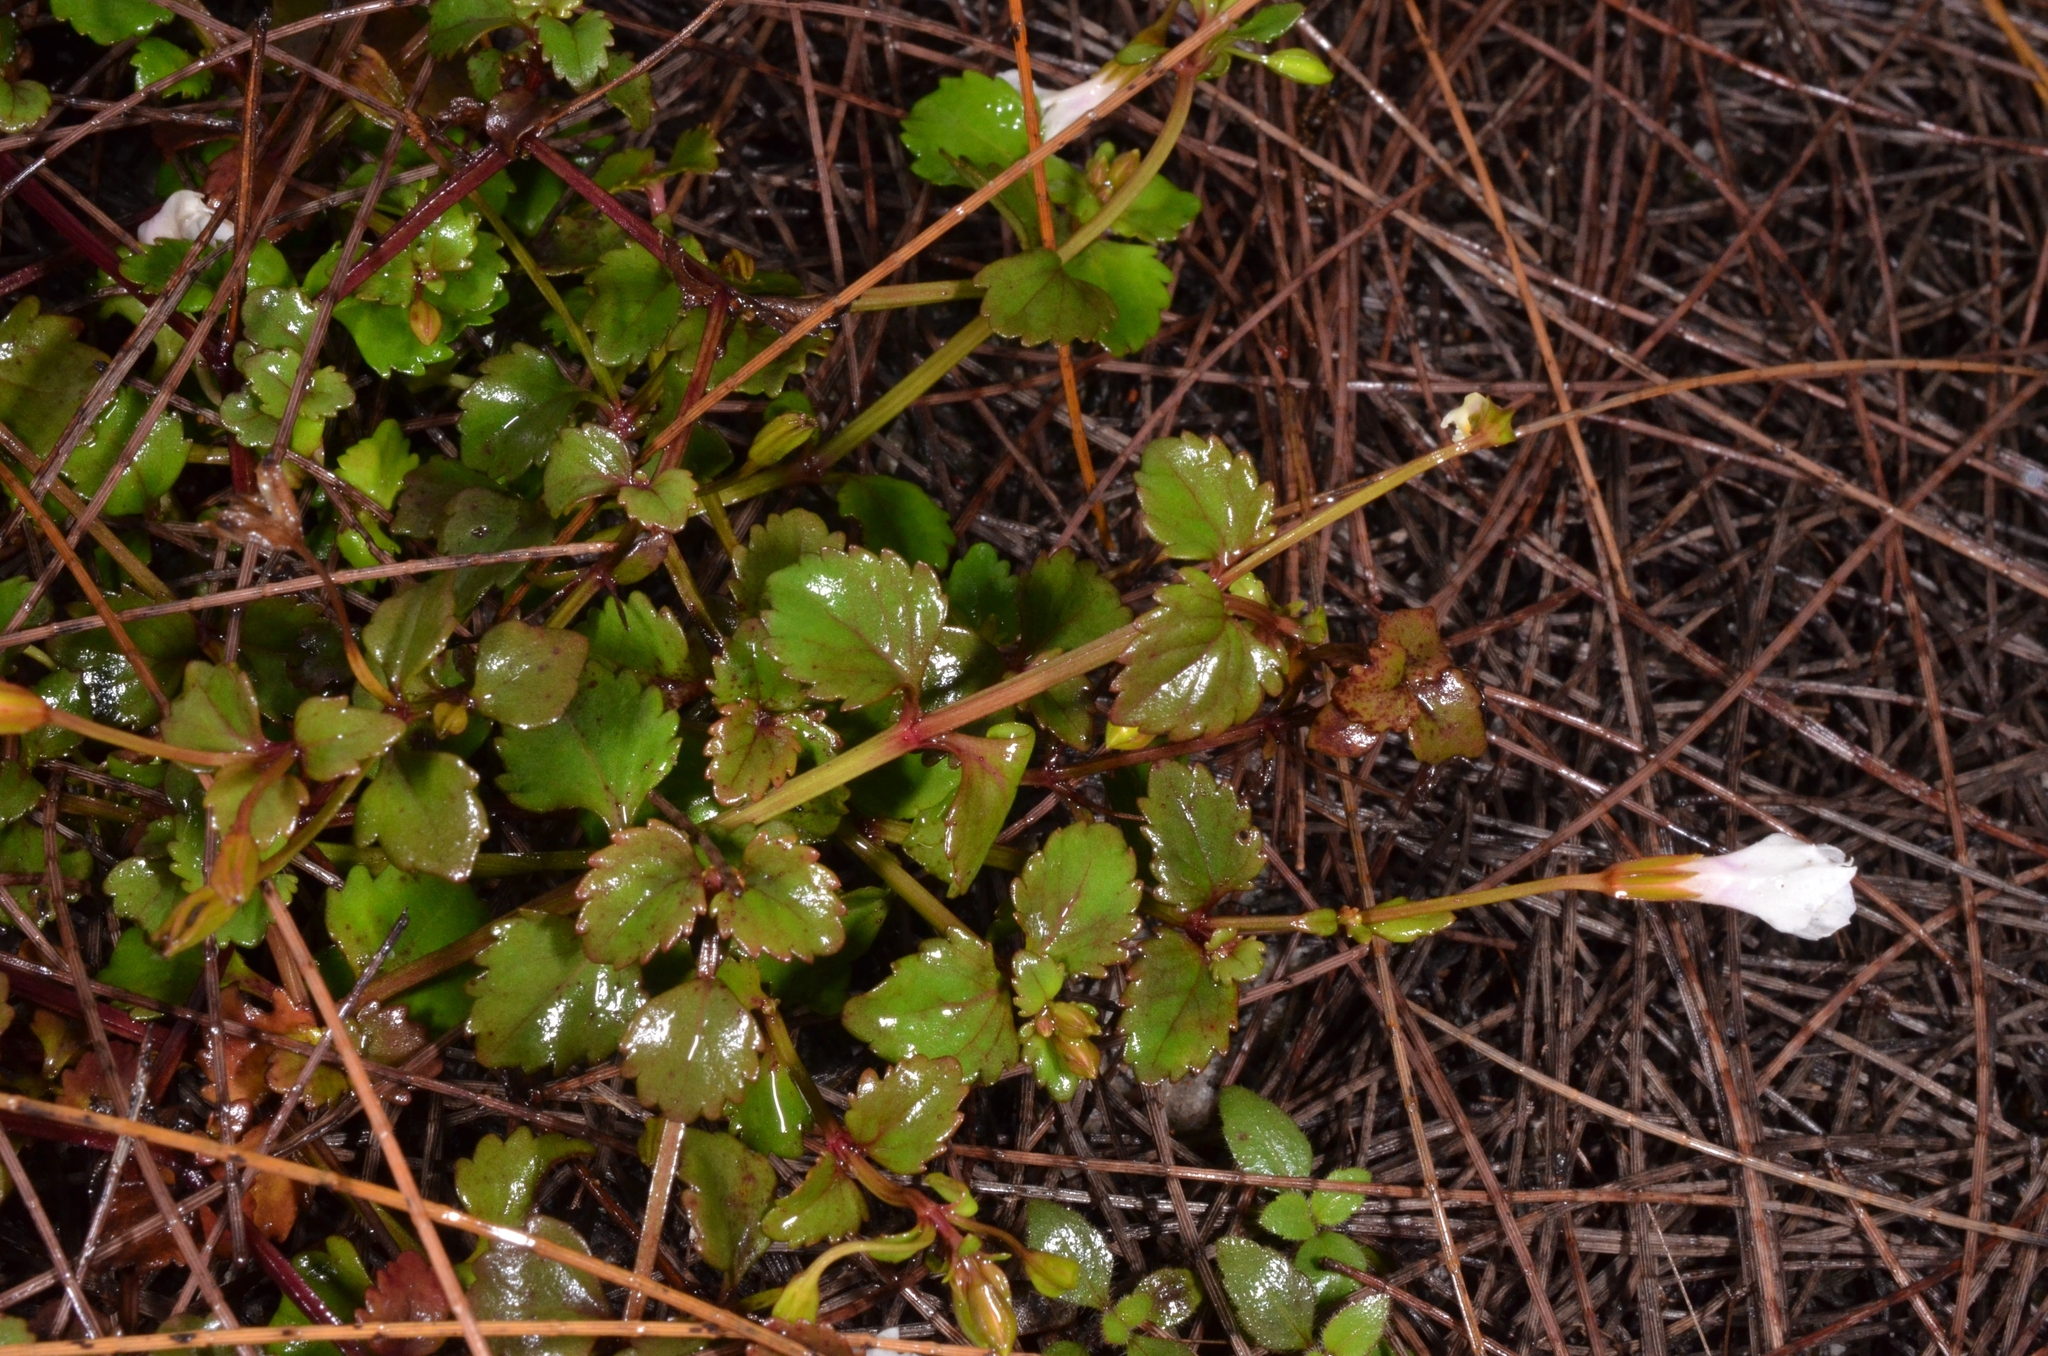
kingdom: Plantae
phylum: Tracheophyta
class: Magnoliopsida
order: Lamiales
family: Linderniaceae
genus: Torenia
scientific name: Torenia crustacea
